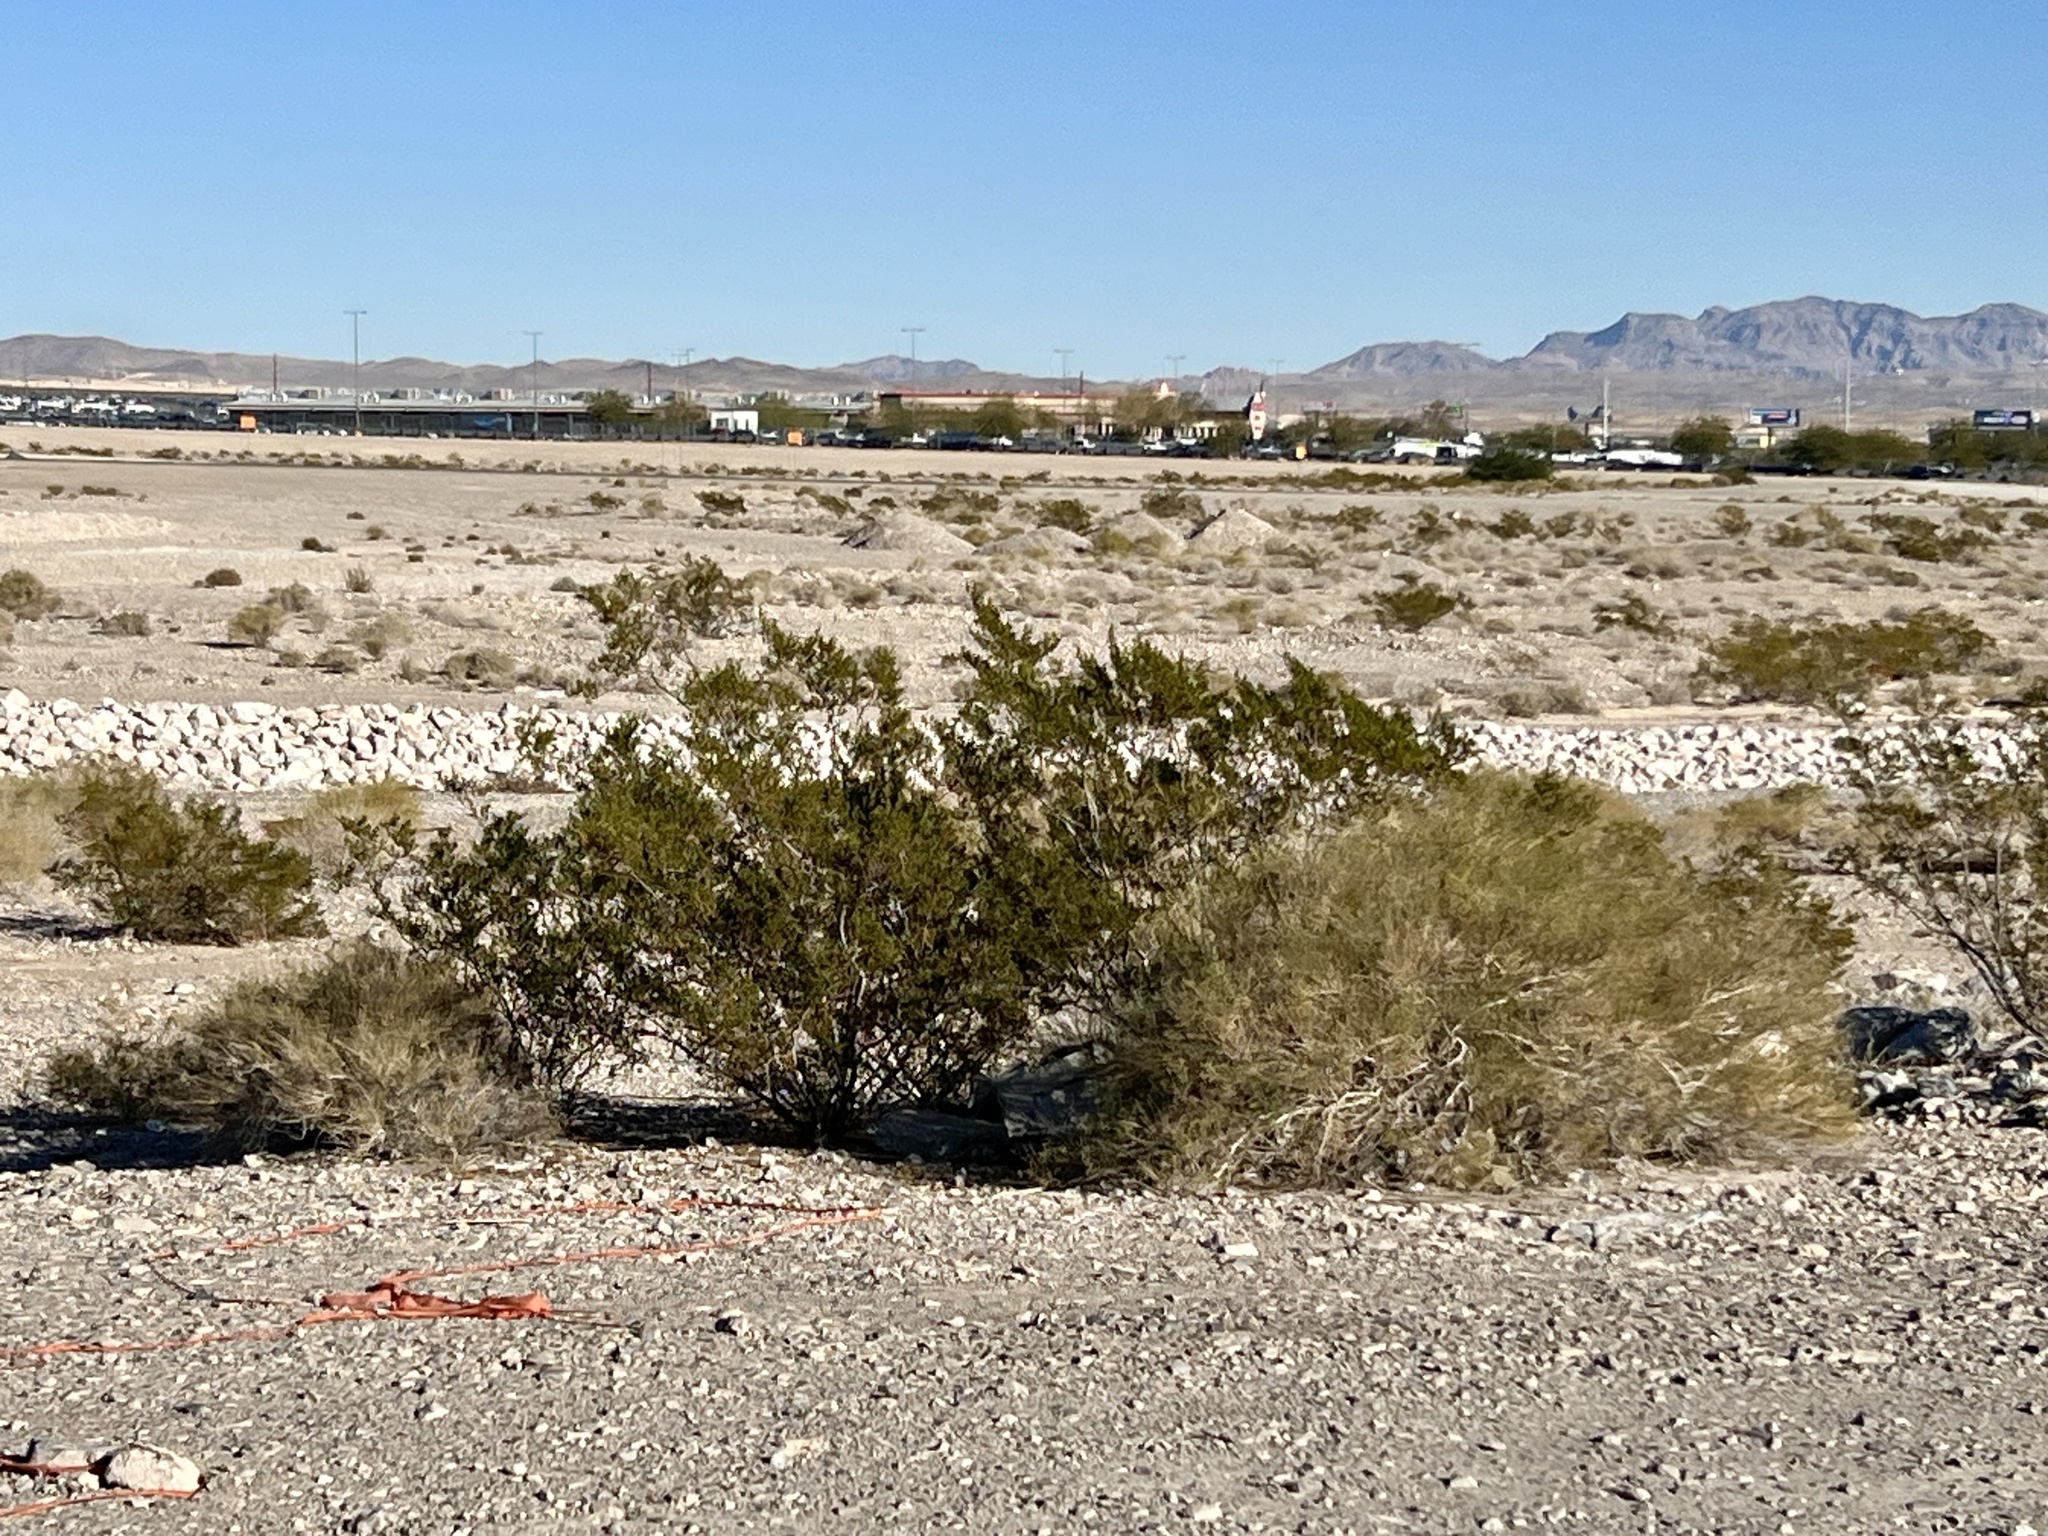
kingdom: Plantae
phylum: Tracheophyta
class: Magnoliopsida
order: Zygophyllales
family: Zygophyllaceae
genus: Larrea
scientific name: Larrea tridentata
